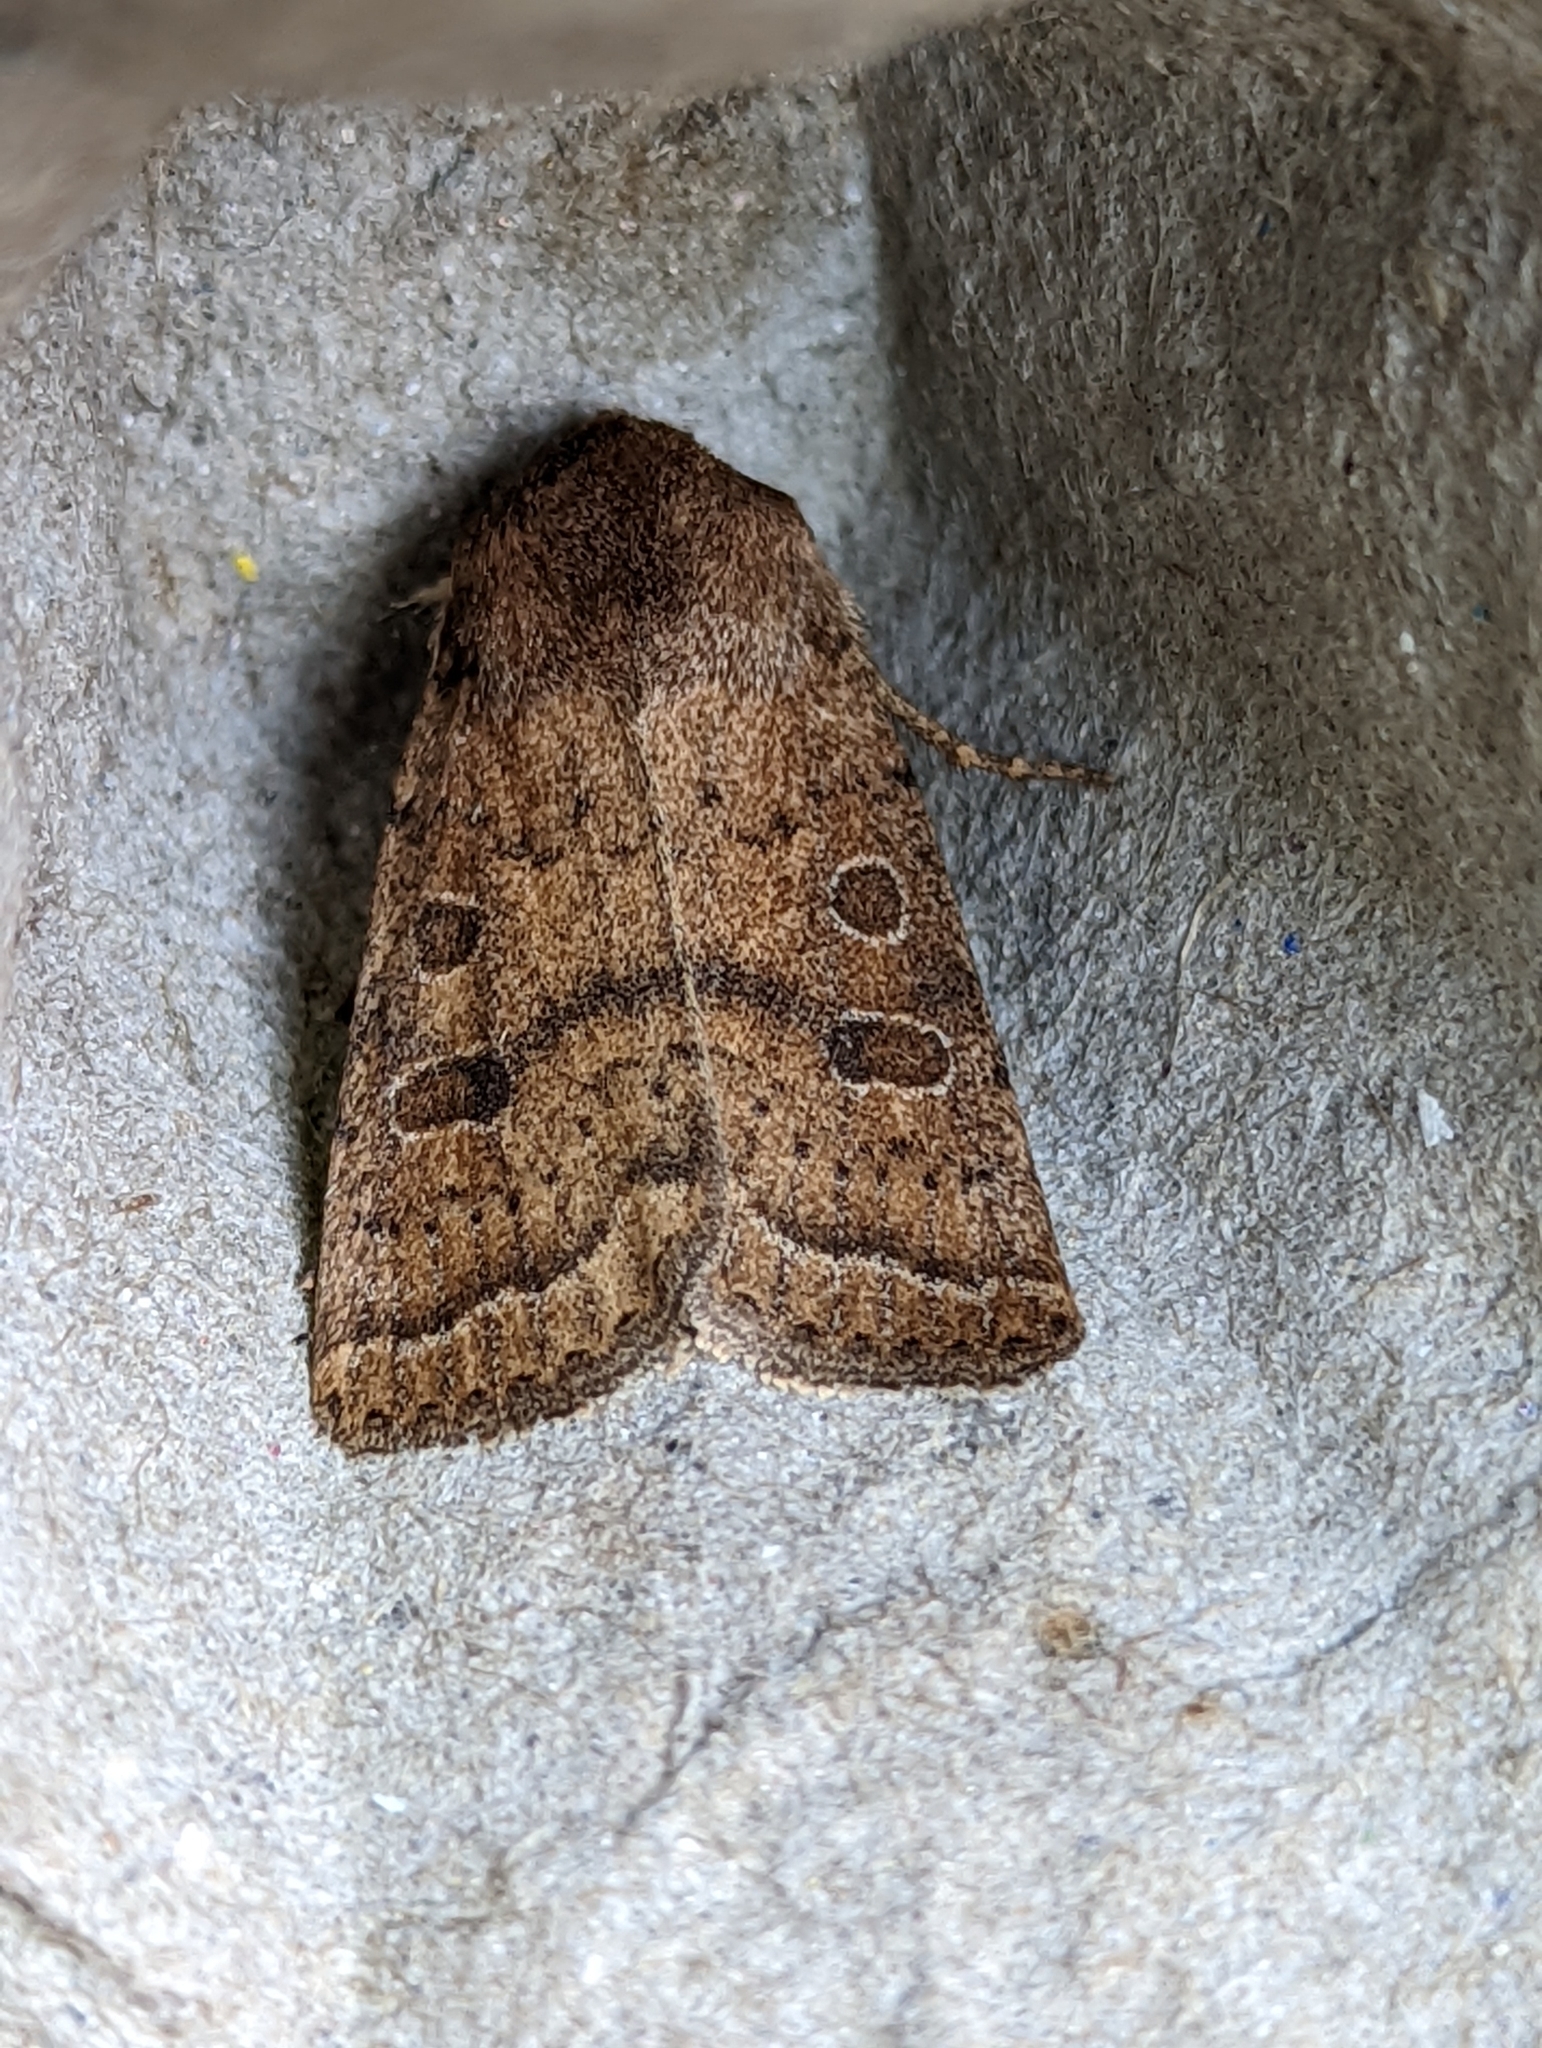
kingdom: Animalia
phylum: Arthropoda
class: Insecta
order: Lepidoptera
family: Noctuidae
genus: Hoplodrina
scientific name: Hoplodrina octogenaria
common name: Uncertain
